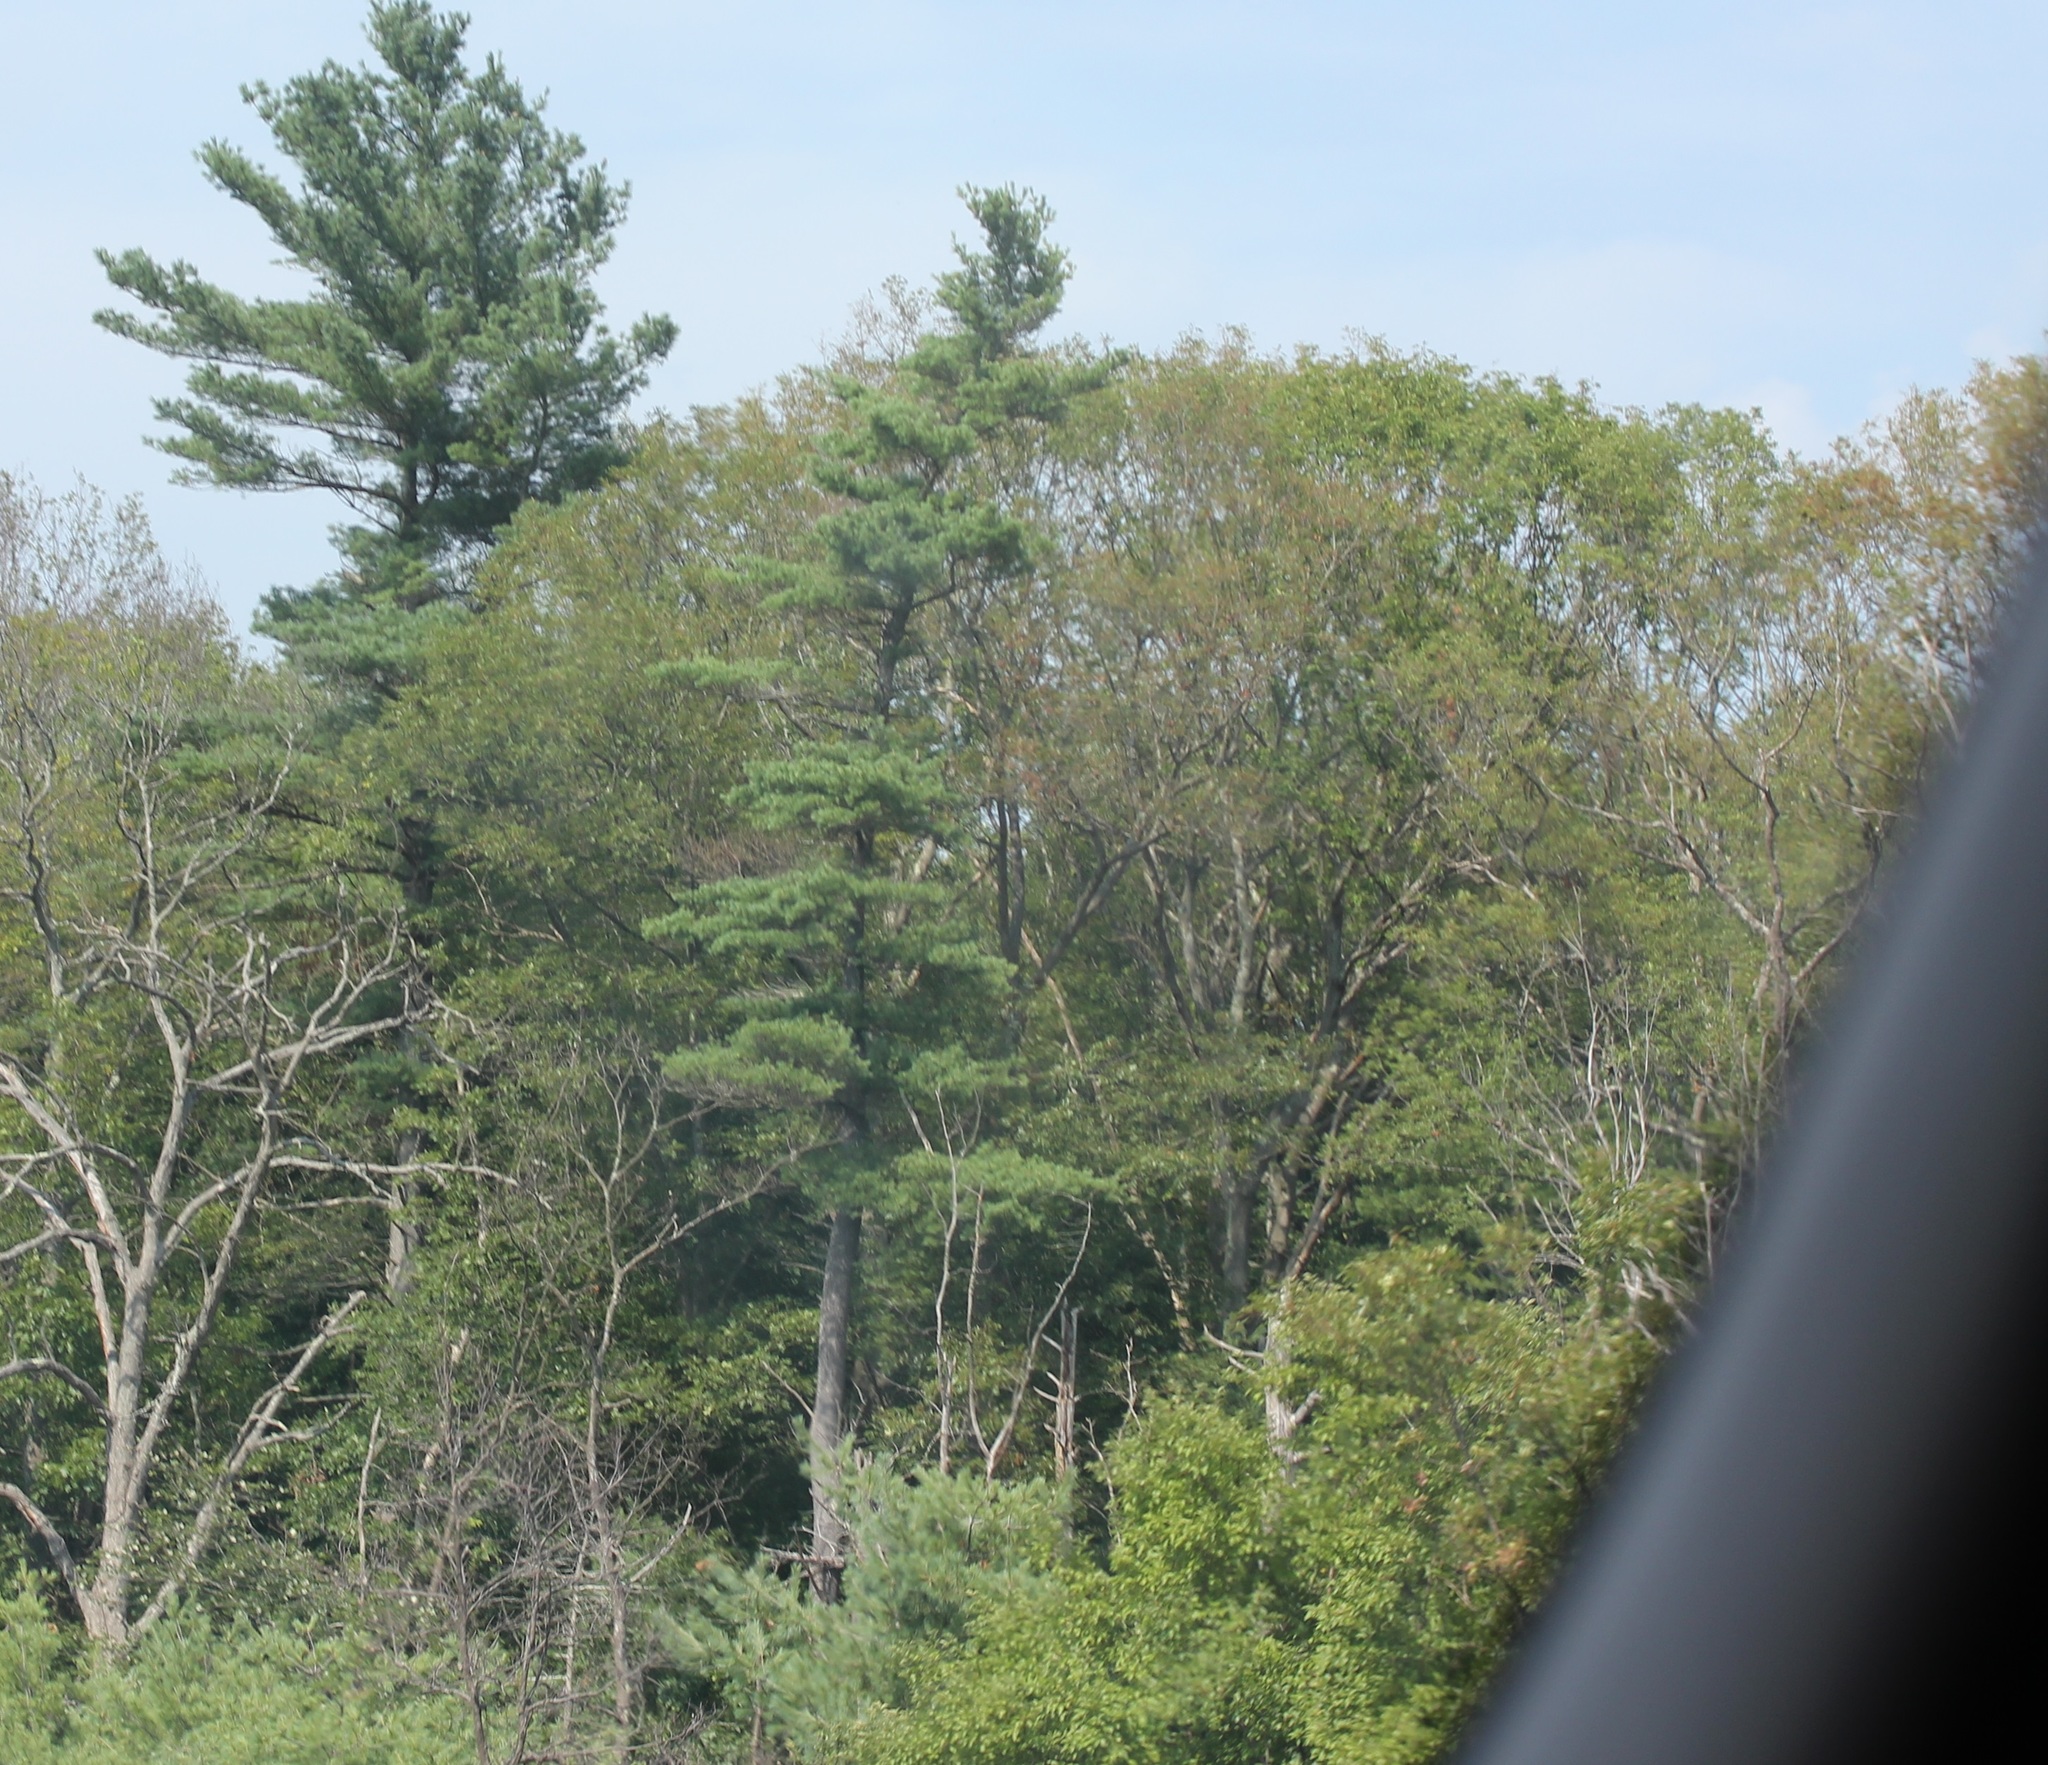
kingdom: Plantae
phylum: Tracheophyta
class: Pinopsida
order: Pinales
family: Pinaceae
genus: Pinus
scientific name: Pinus strobus
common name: Weymouth pine
